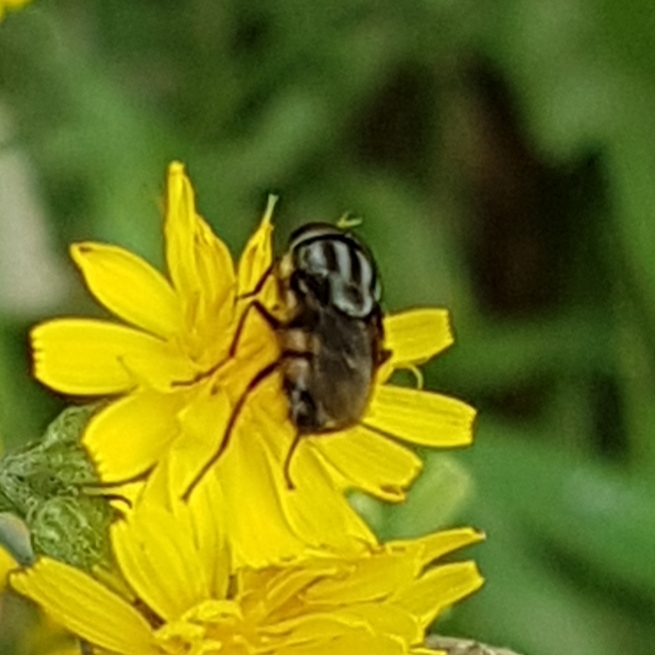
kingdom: Animalia
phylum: Arthropoda
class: Insecta
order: Diptera
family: Calliphoridae
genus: Stomorhina
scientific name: Stomorhina lunata
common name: Locust blowfly
